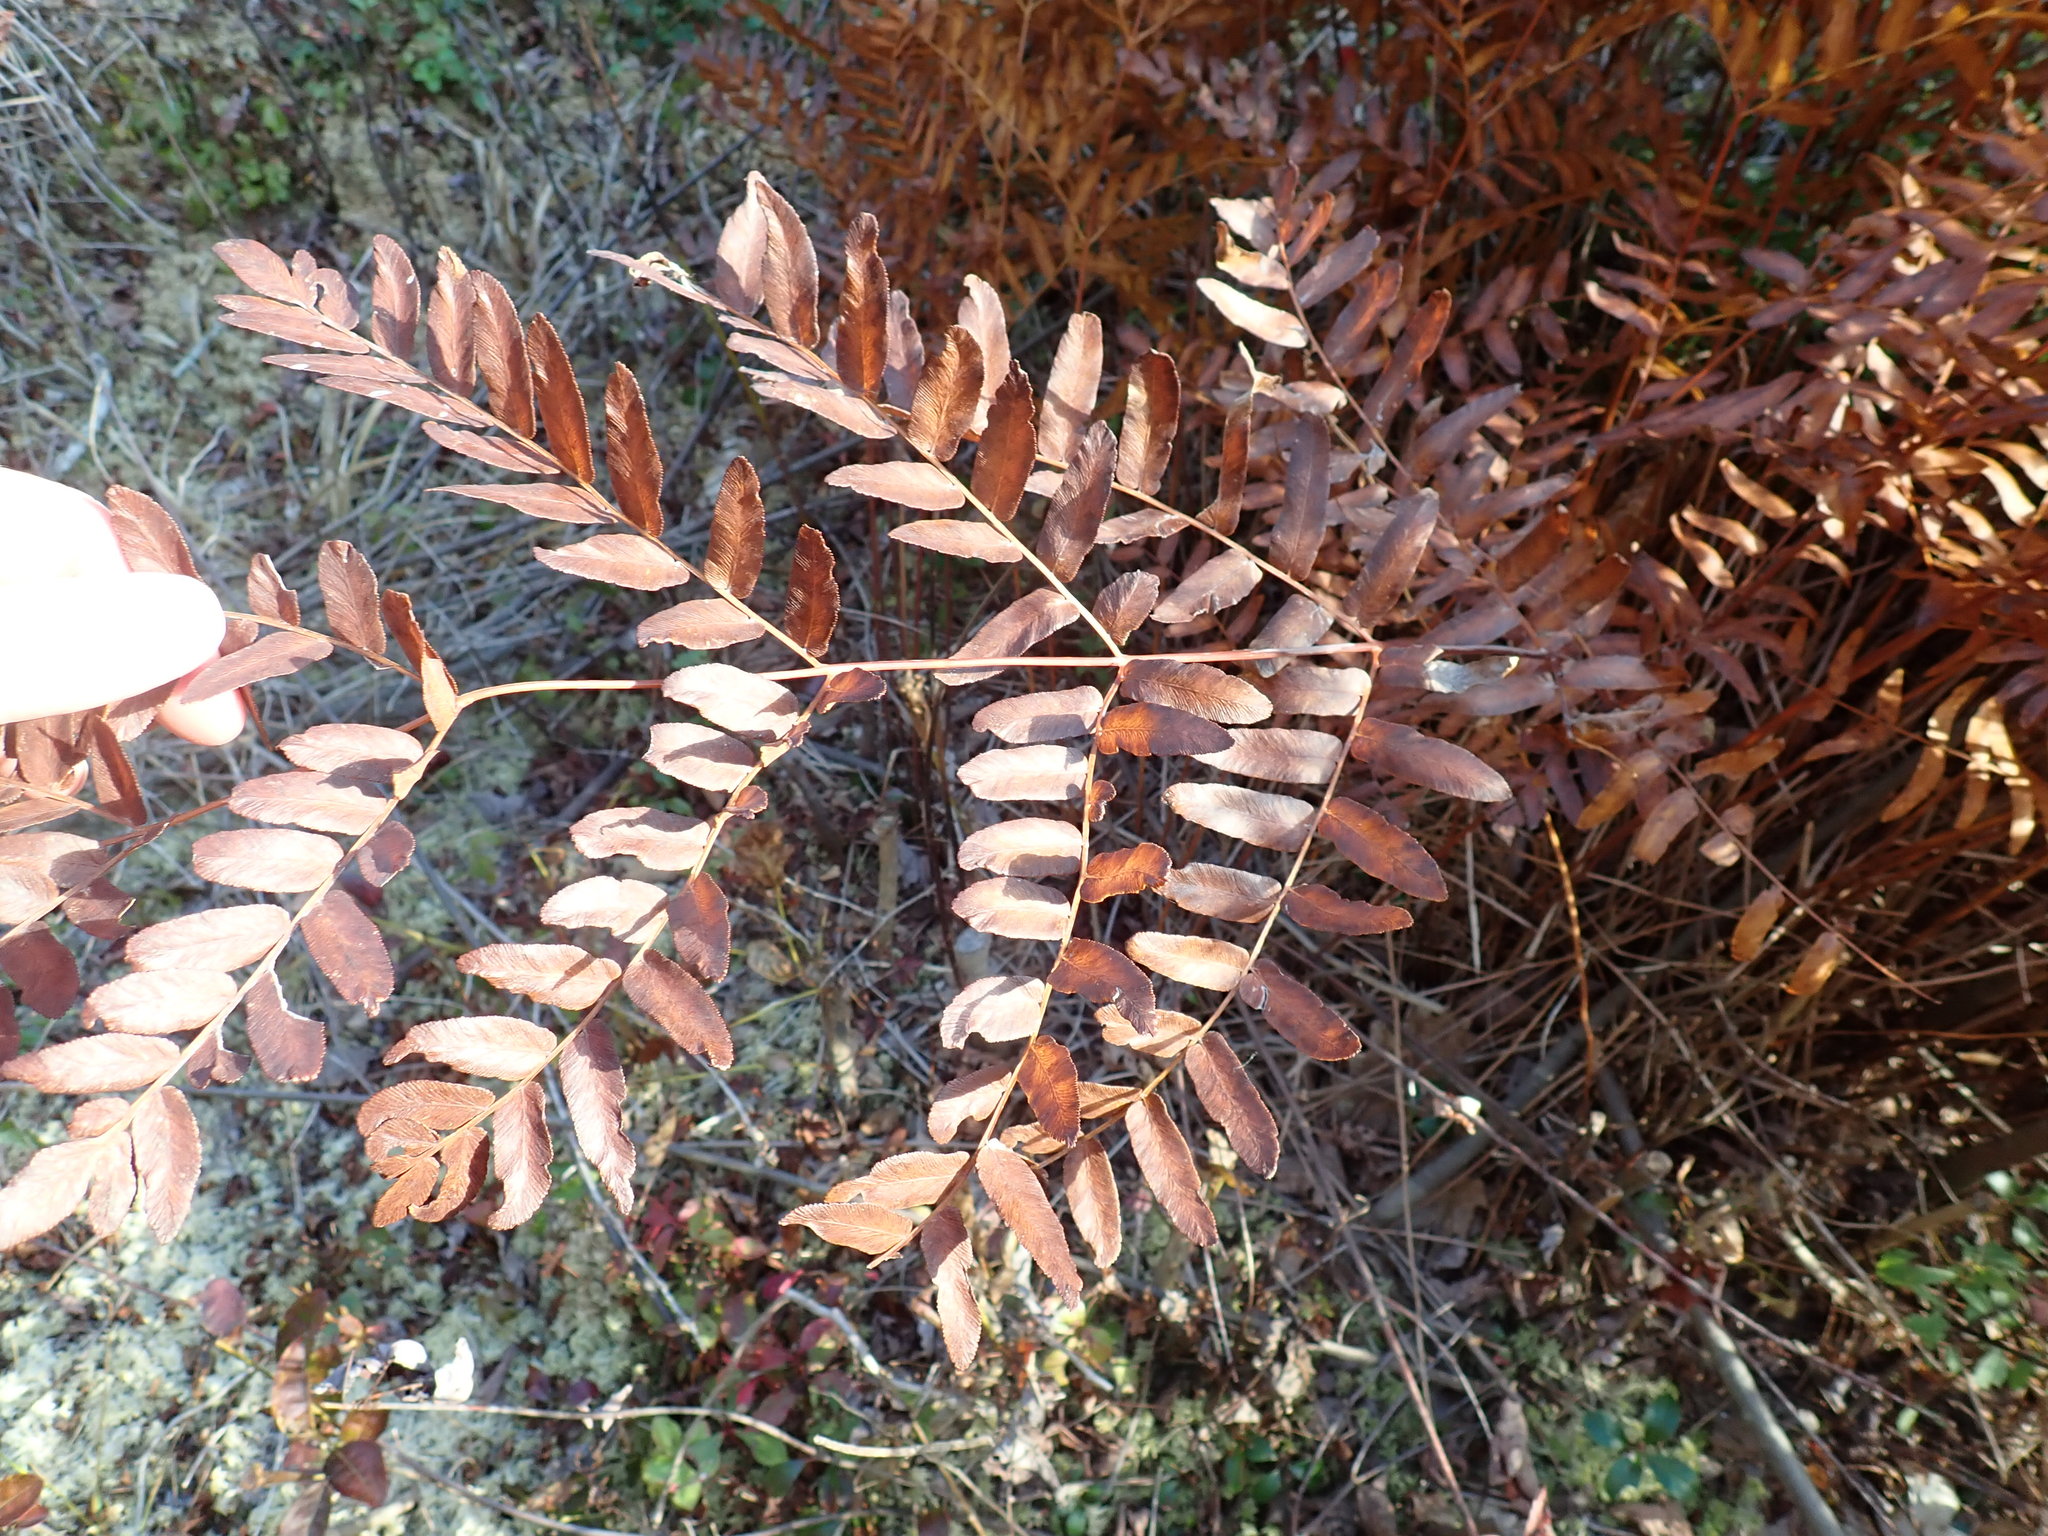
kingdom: Plantae
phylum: Tracheophyta
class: Polypodiopsida
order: Osmundales
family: Osmundaceae
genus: Osmunda
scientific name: Osmunda spectabilis
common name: American royal fern
